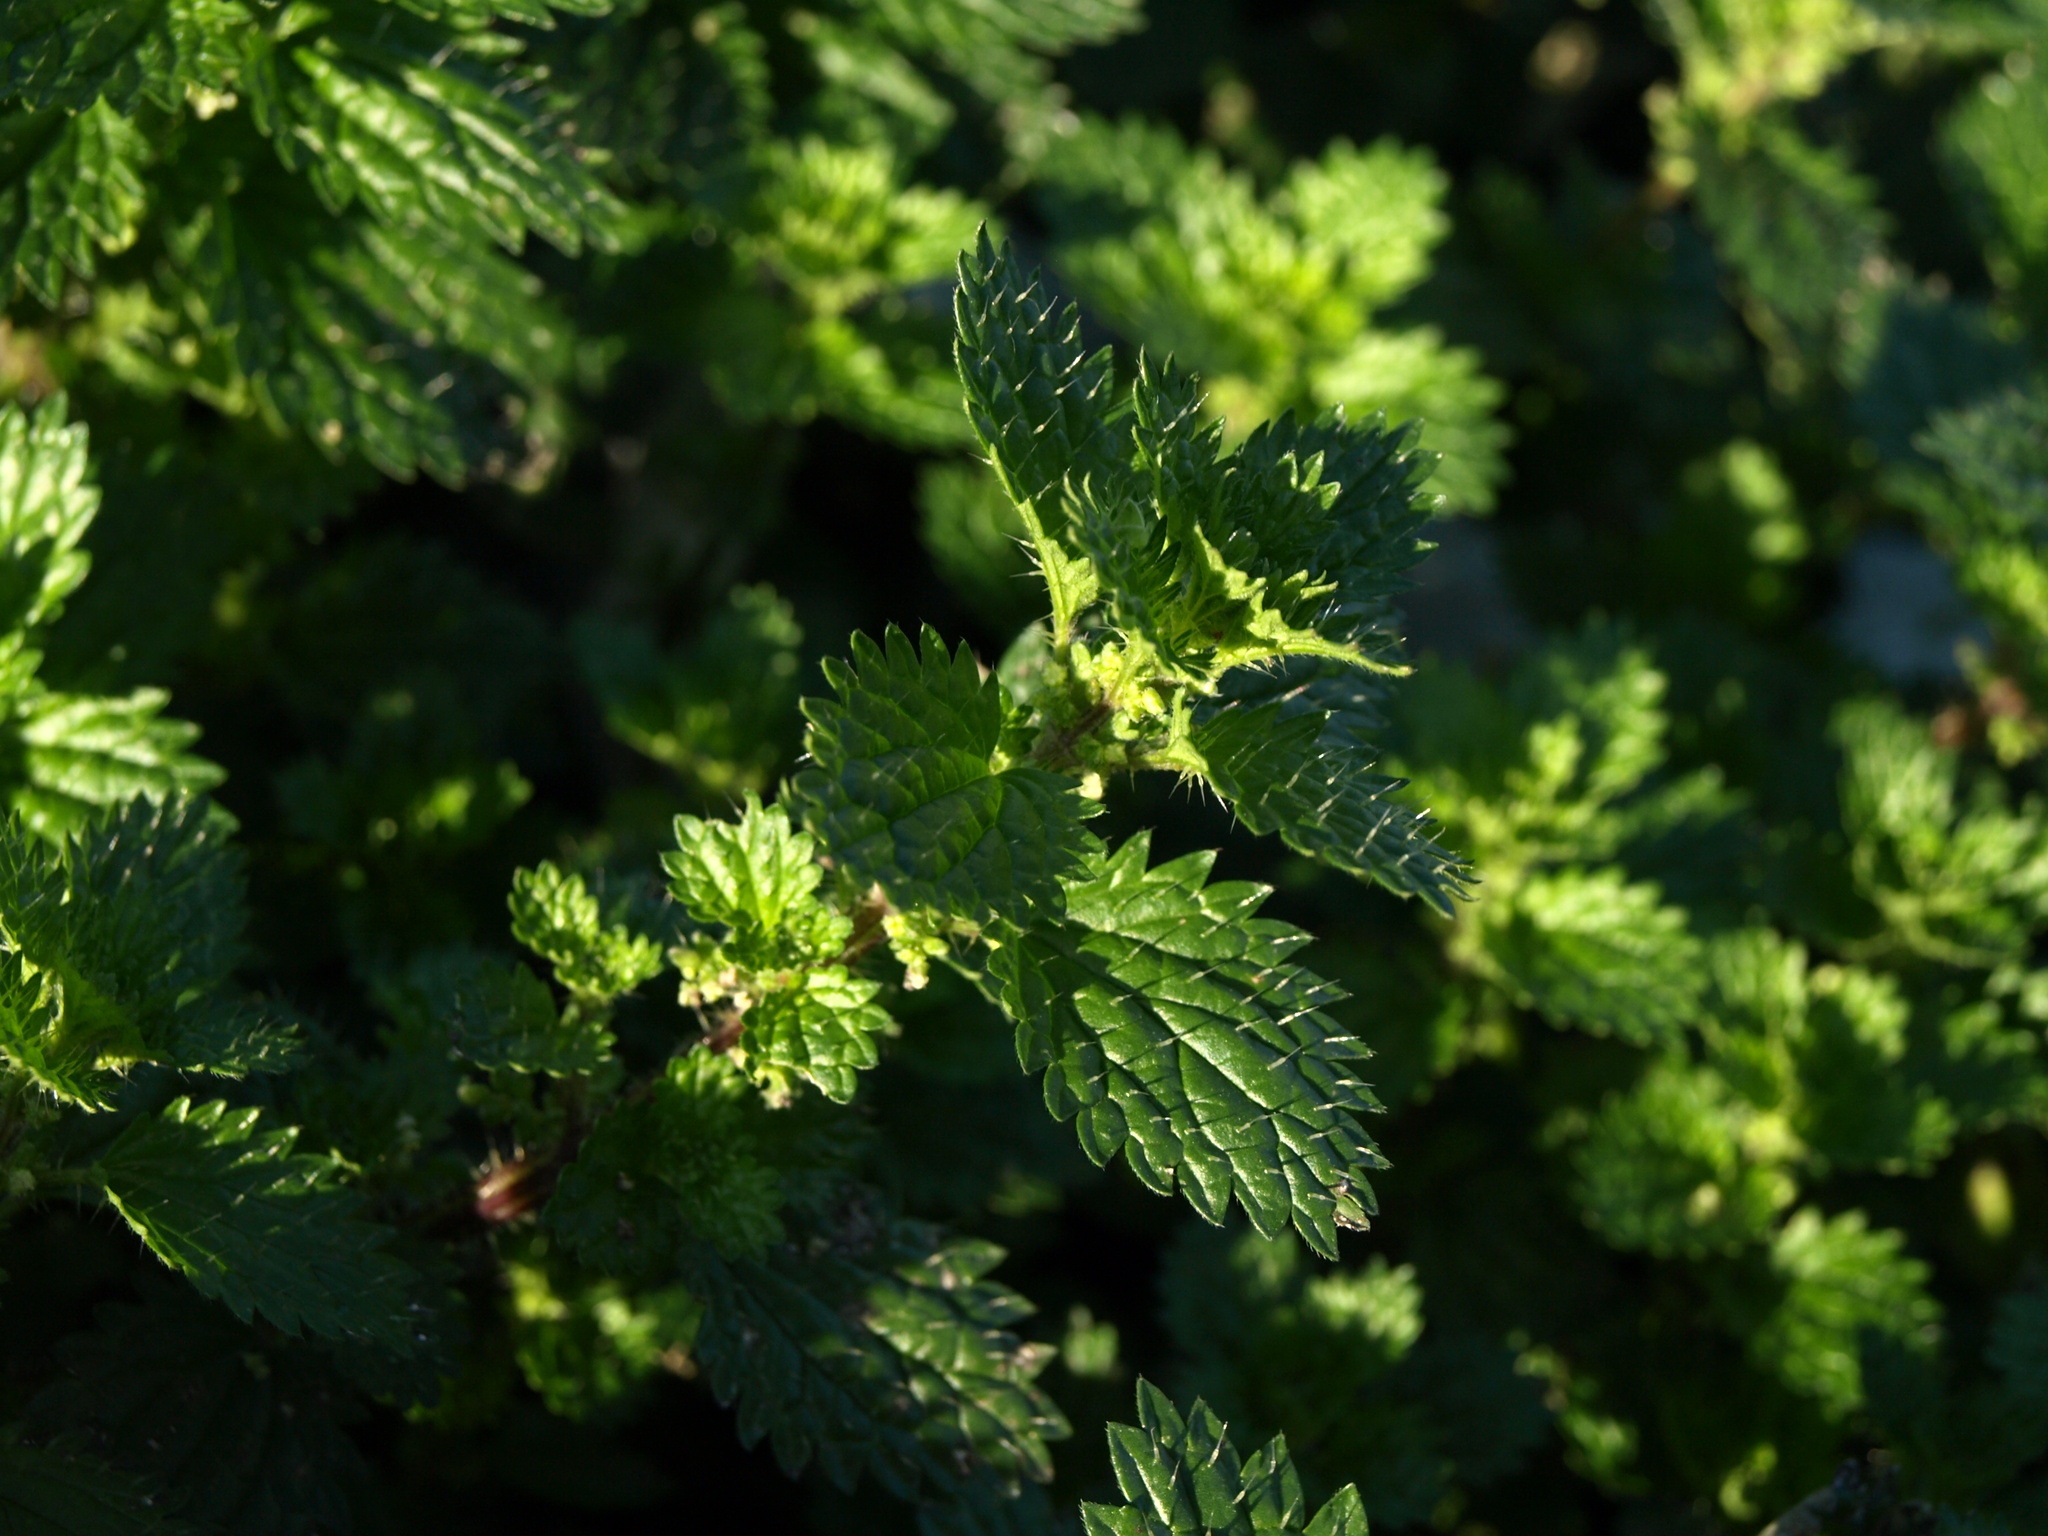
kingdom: Plantae
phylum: Tracheophyta
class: Magnoliopsida
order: Rosales
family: Urticaceae
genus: Urtica
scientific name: Urtica urens
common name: Dwarf nettle
